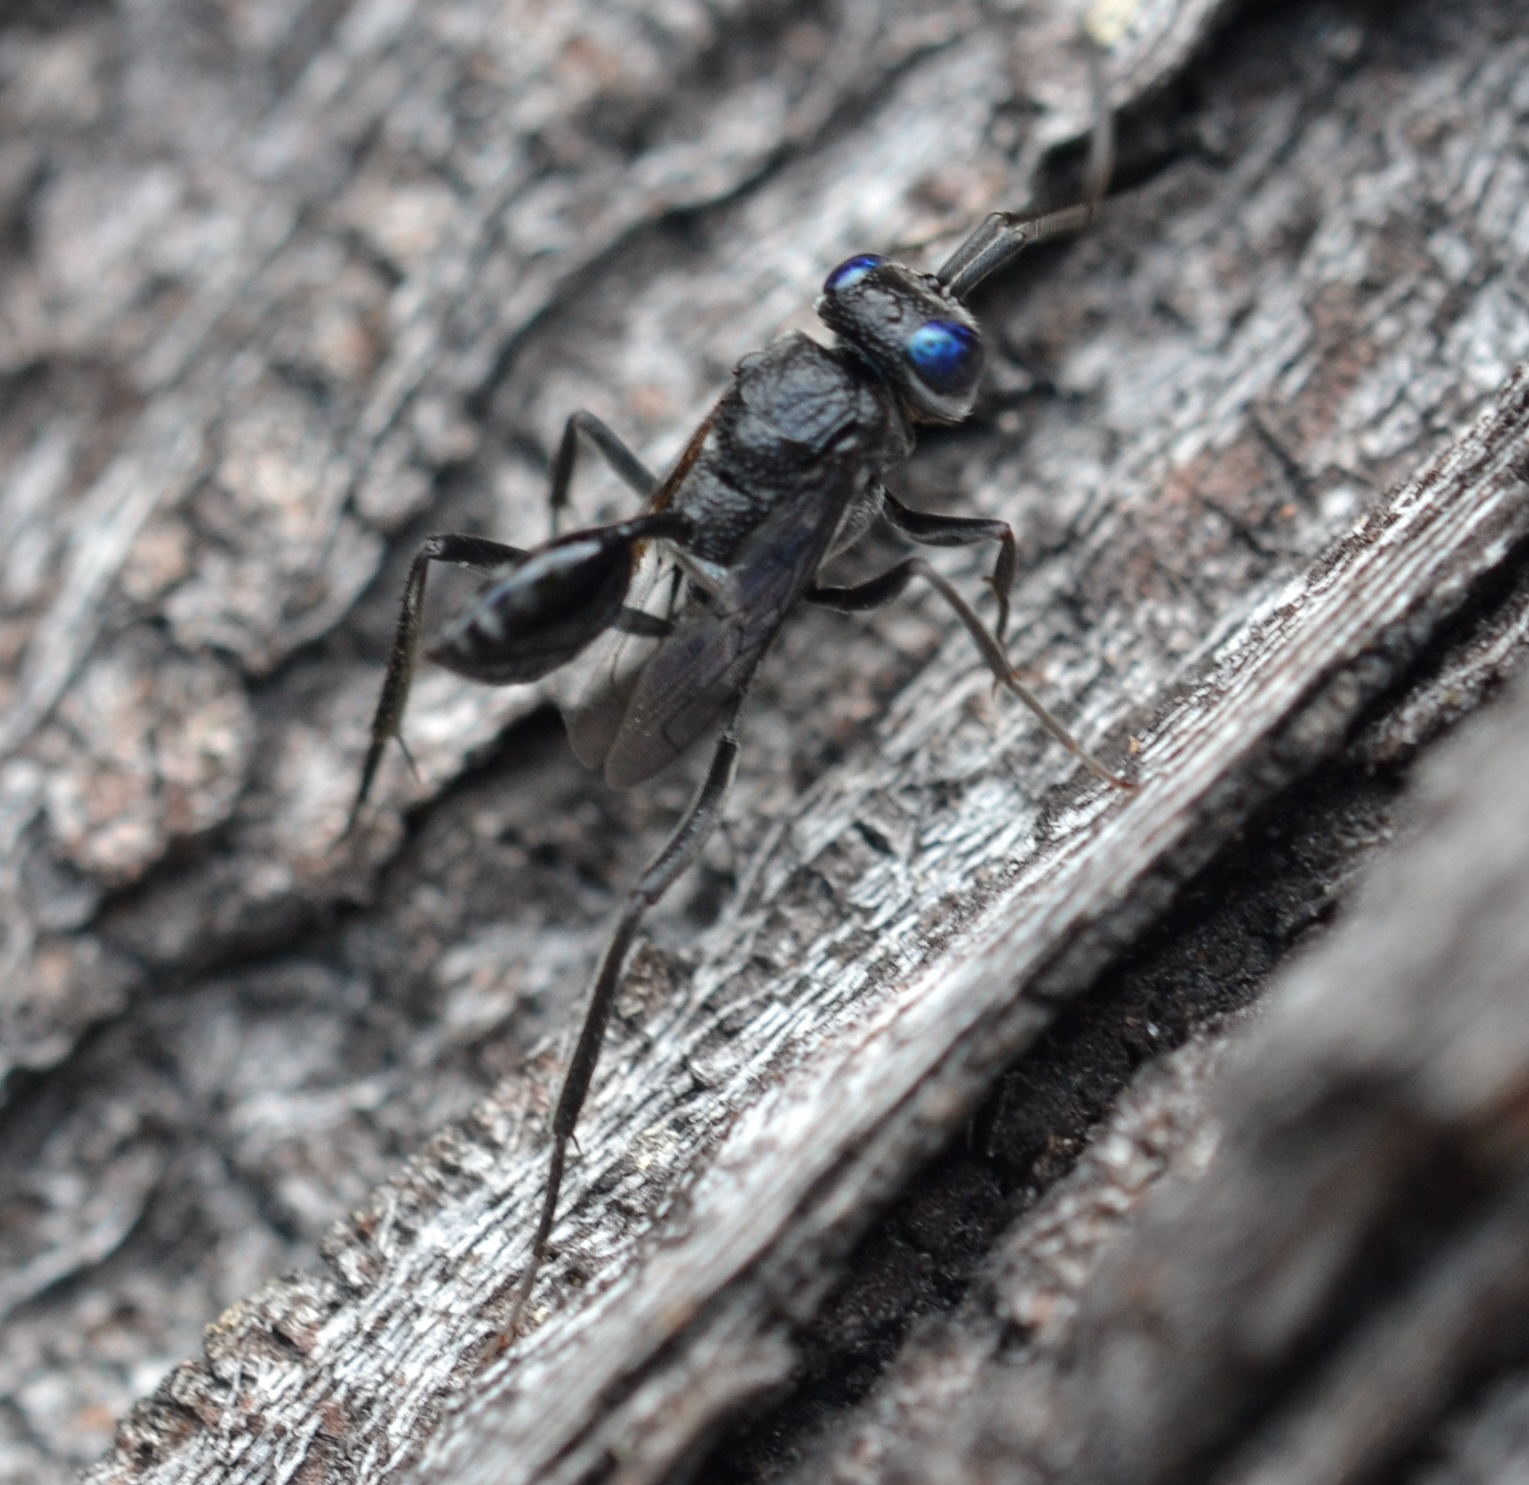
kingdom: Animalia
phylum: Arthropoda
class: Insecta
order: Hymenoptera
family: Evaniidae
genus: Evania
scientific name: Evania appendigaster
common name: Ensign wasp
